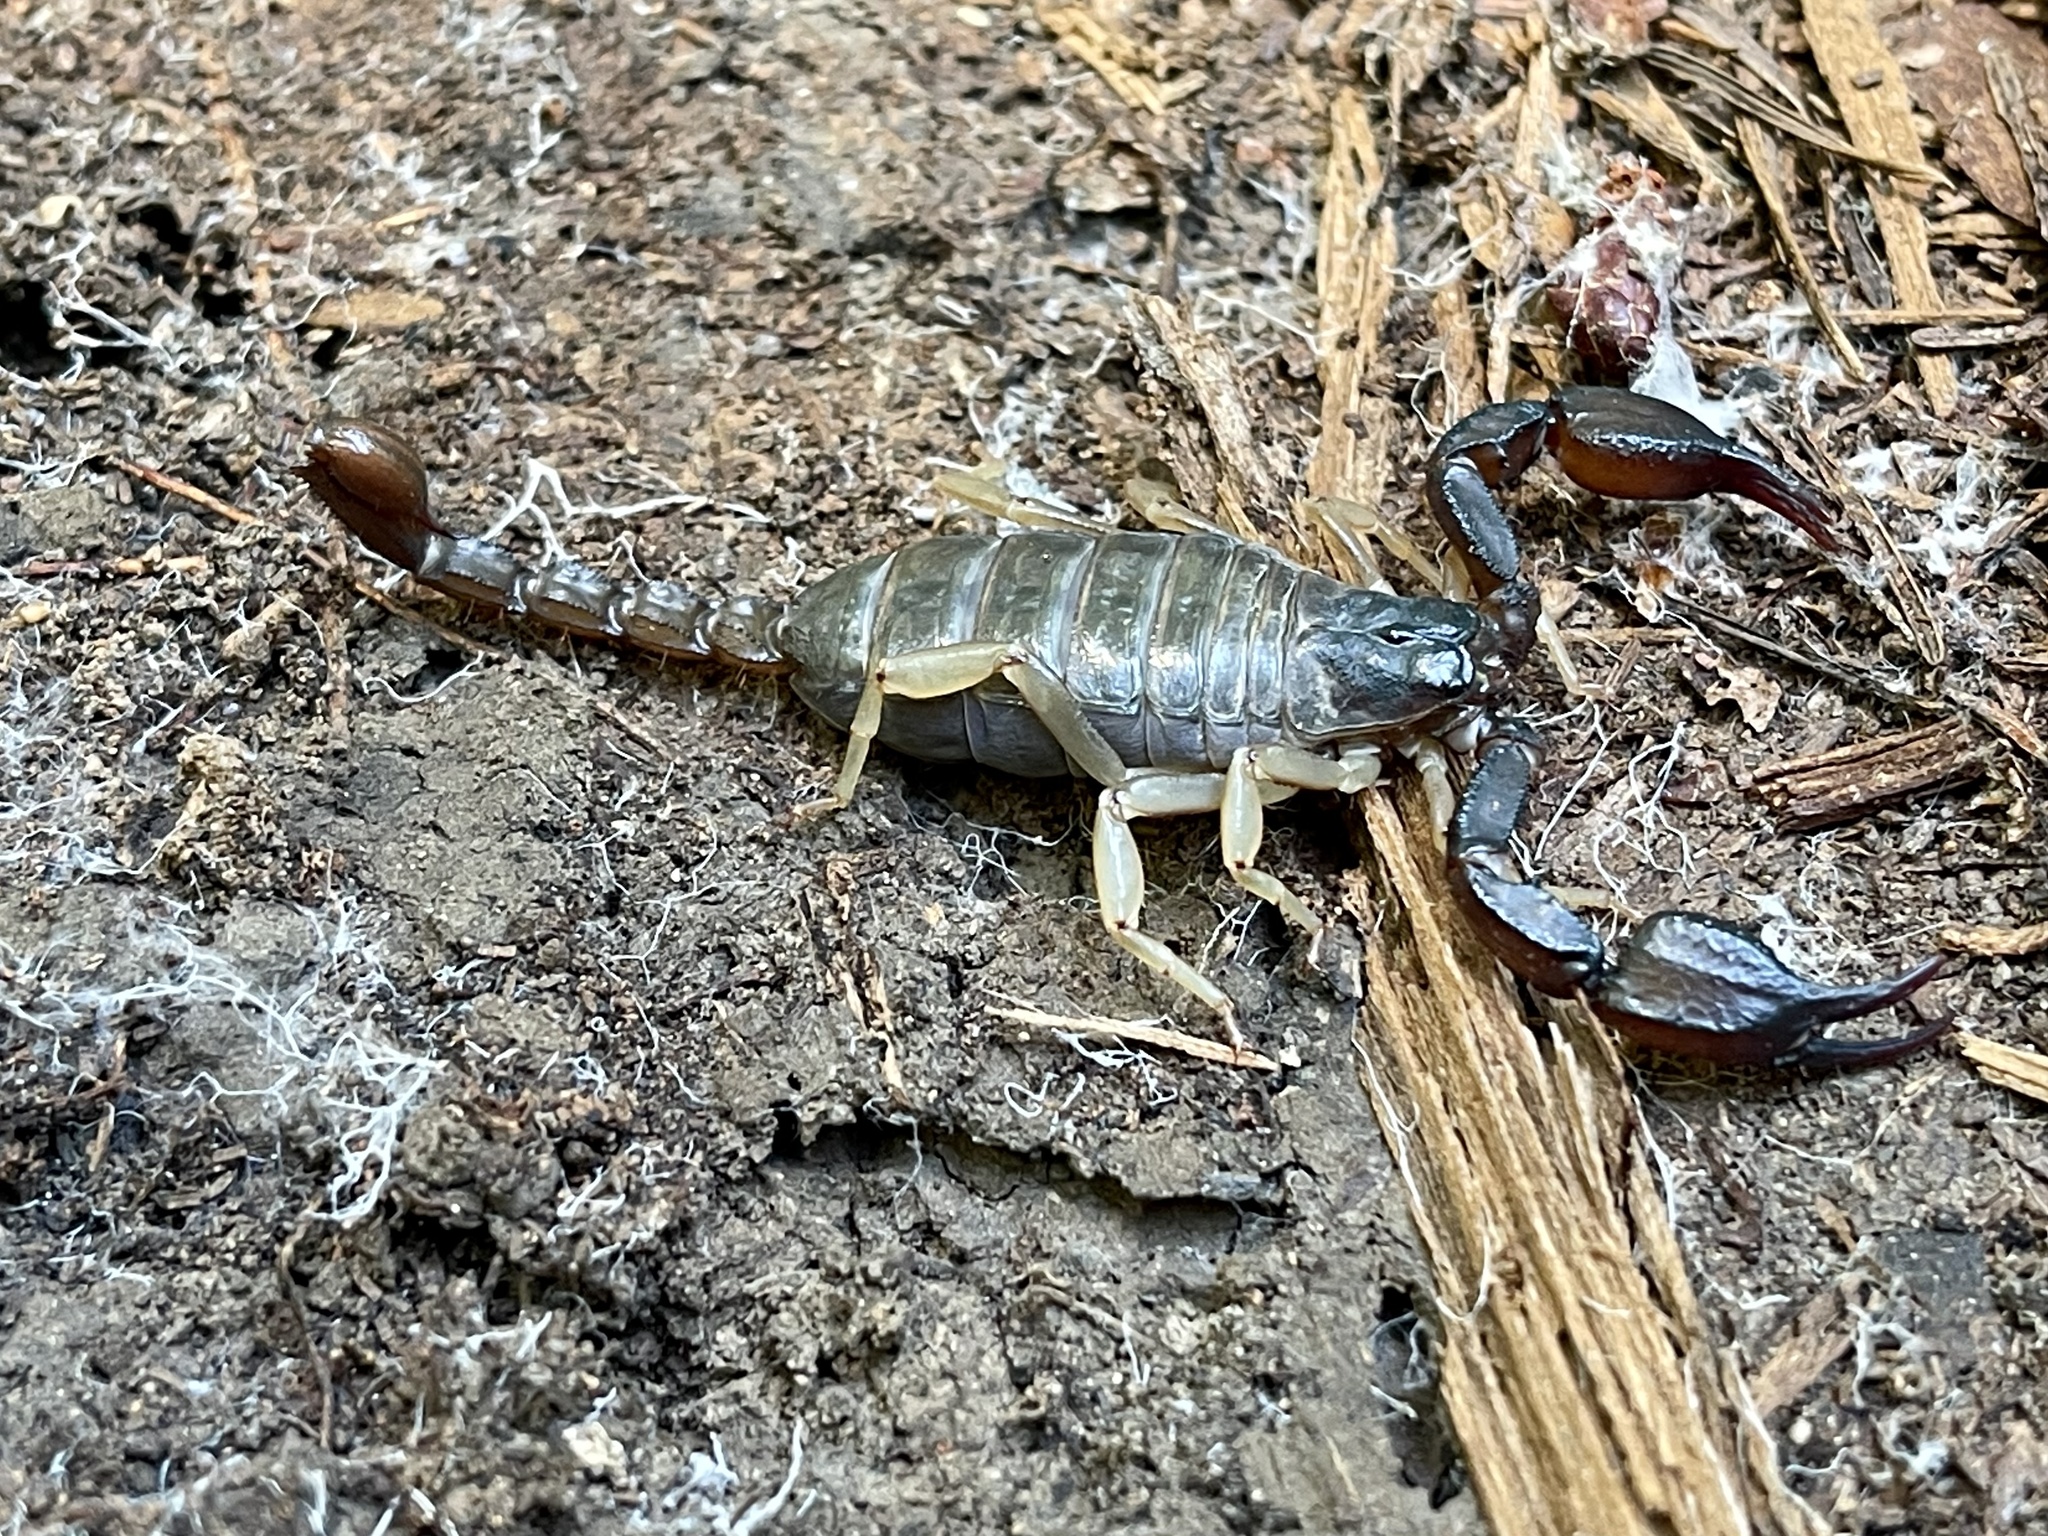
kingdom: Animalia
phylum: Arthropoda
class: Arachnida
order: Scorpiones
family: Chactidae
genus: Uroctonus
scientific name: Uroctonus mordax
